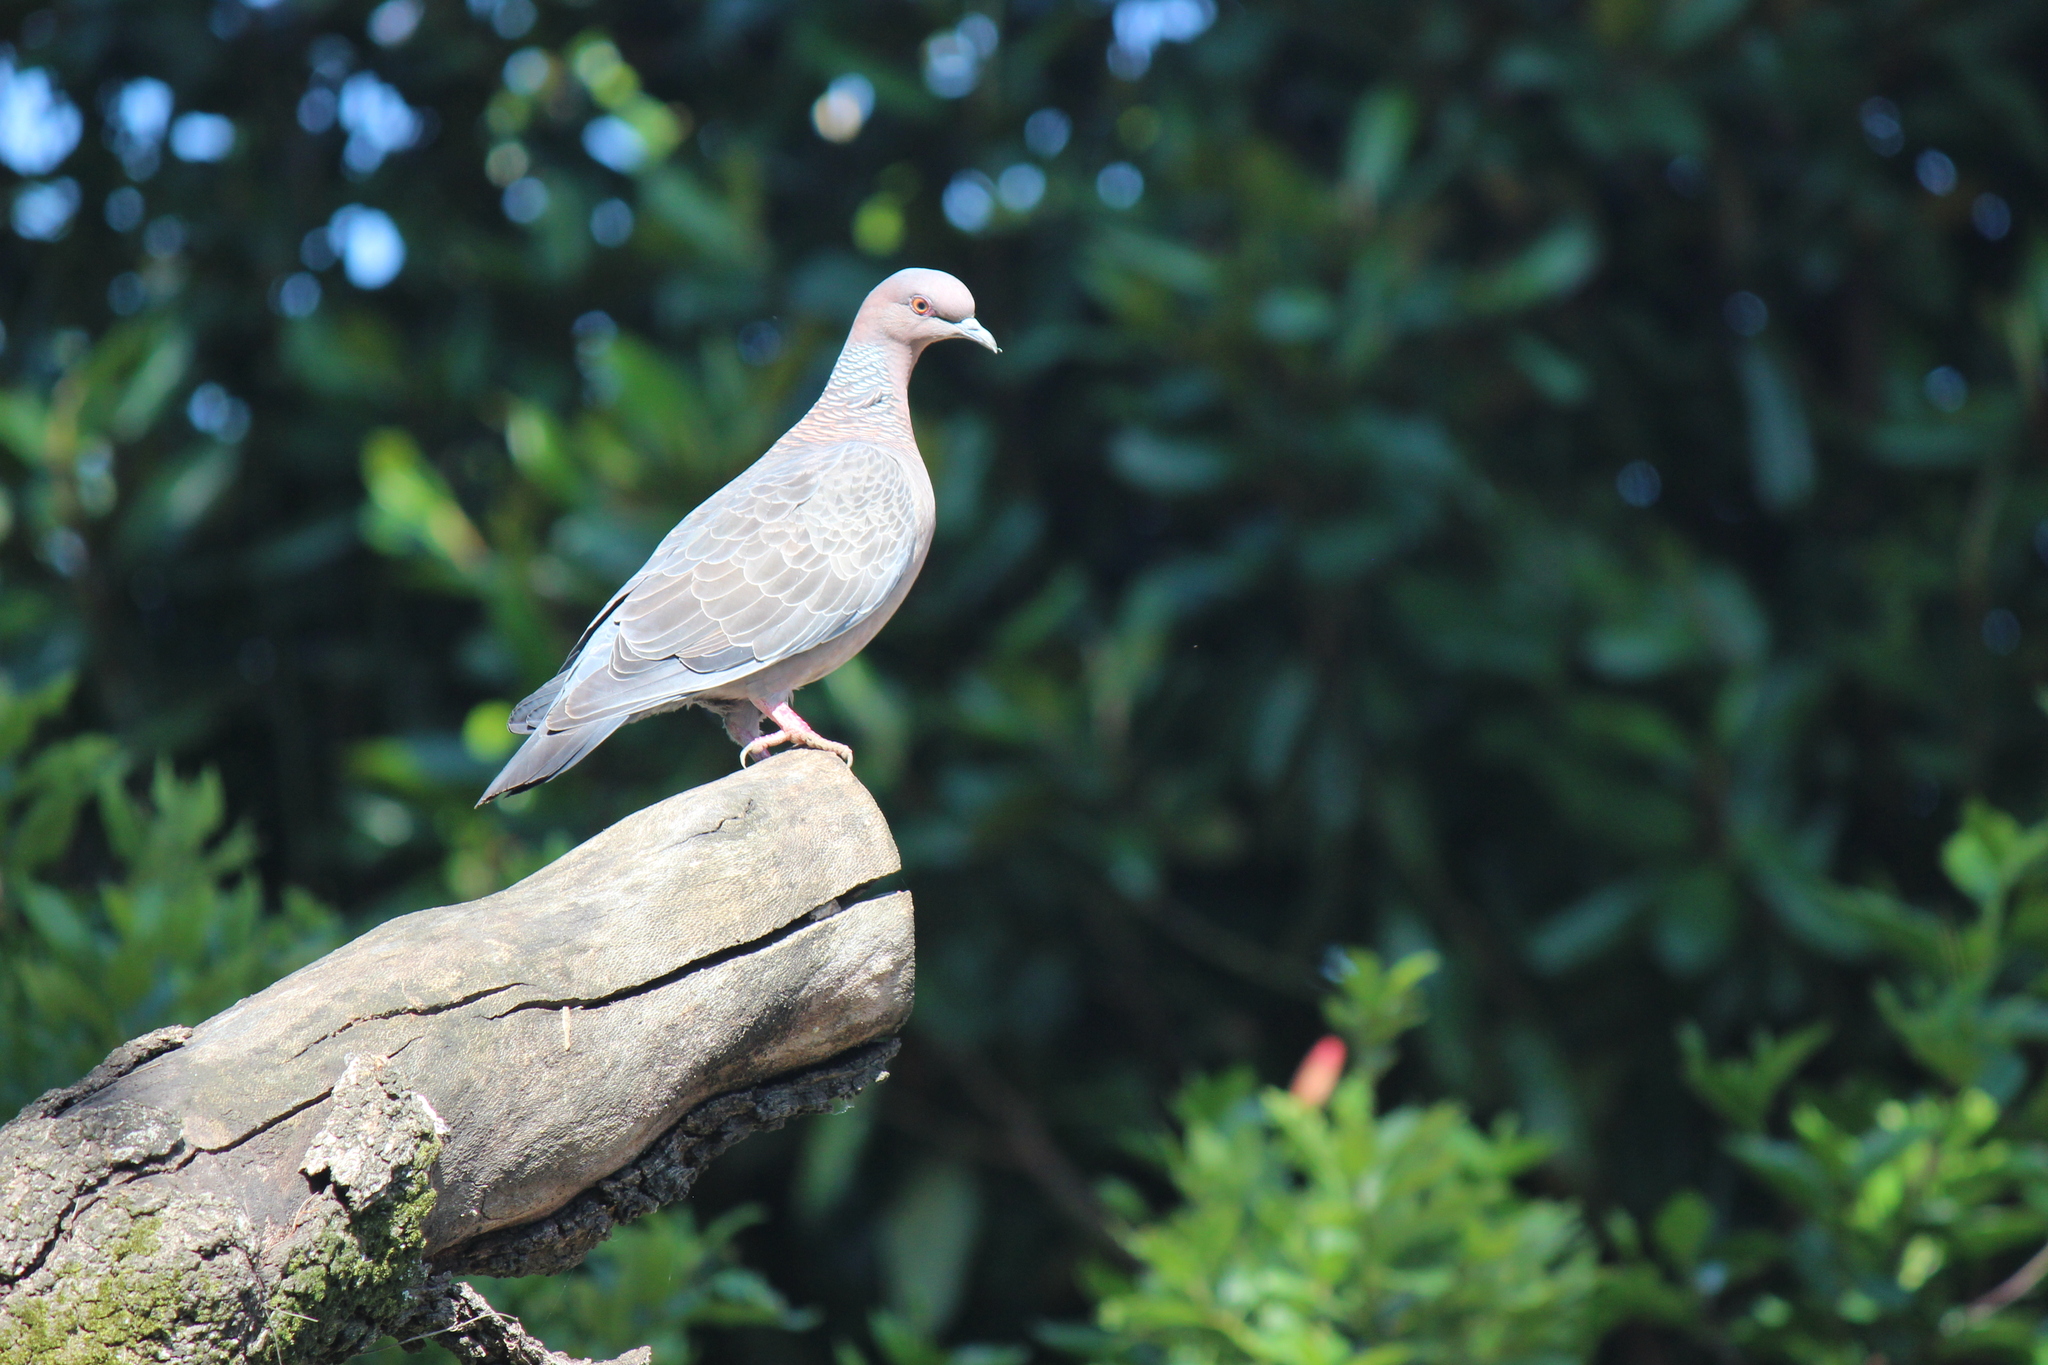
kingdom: Animalia
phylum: Chordata
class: Aves
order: Columbiformes
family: Columbidae
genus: Patagioenas
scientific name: Patagioenas picazuro
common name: Picazuro pigeon
